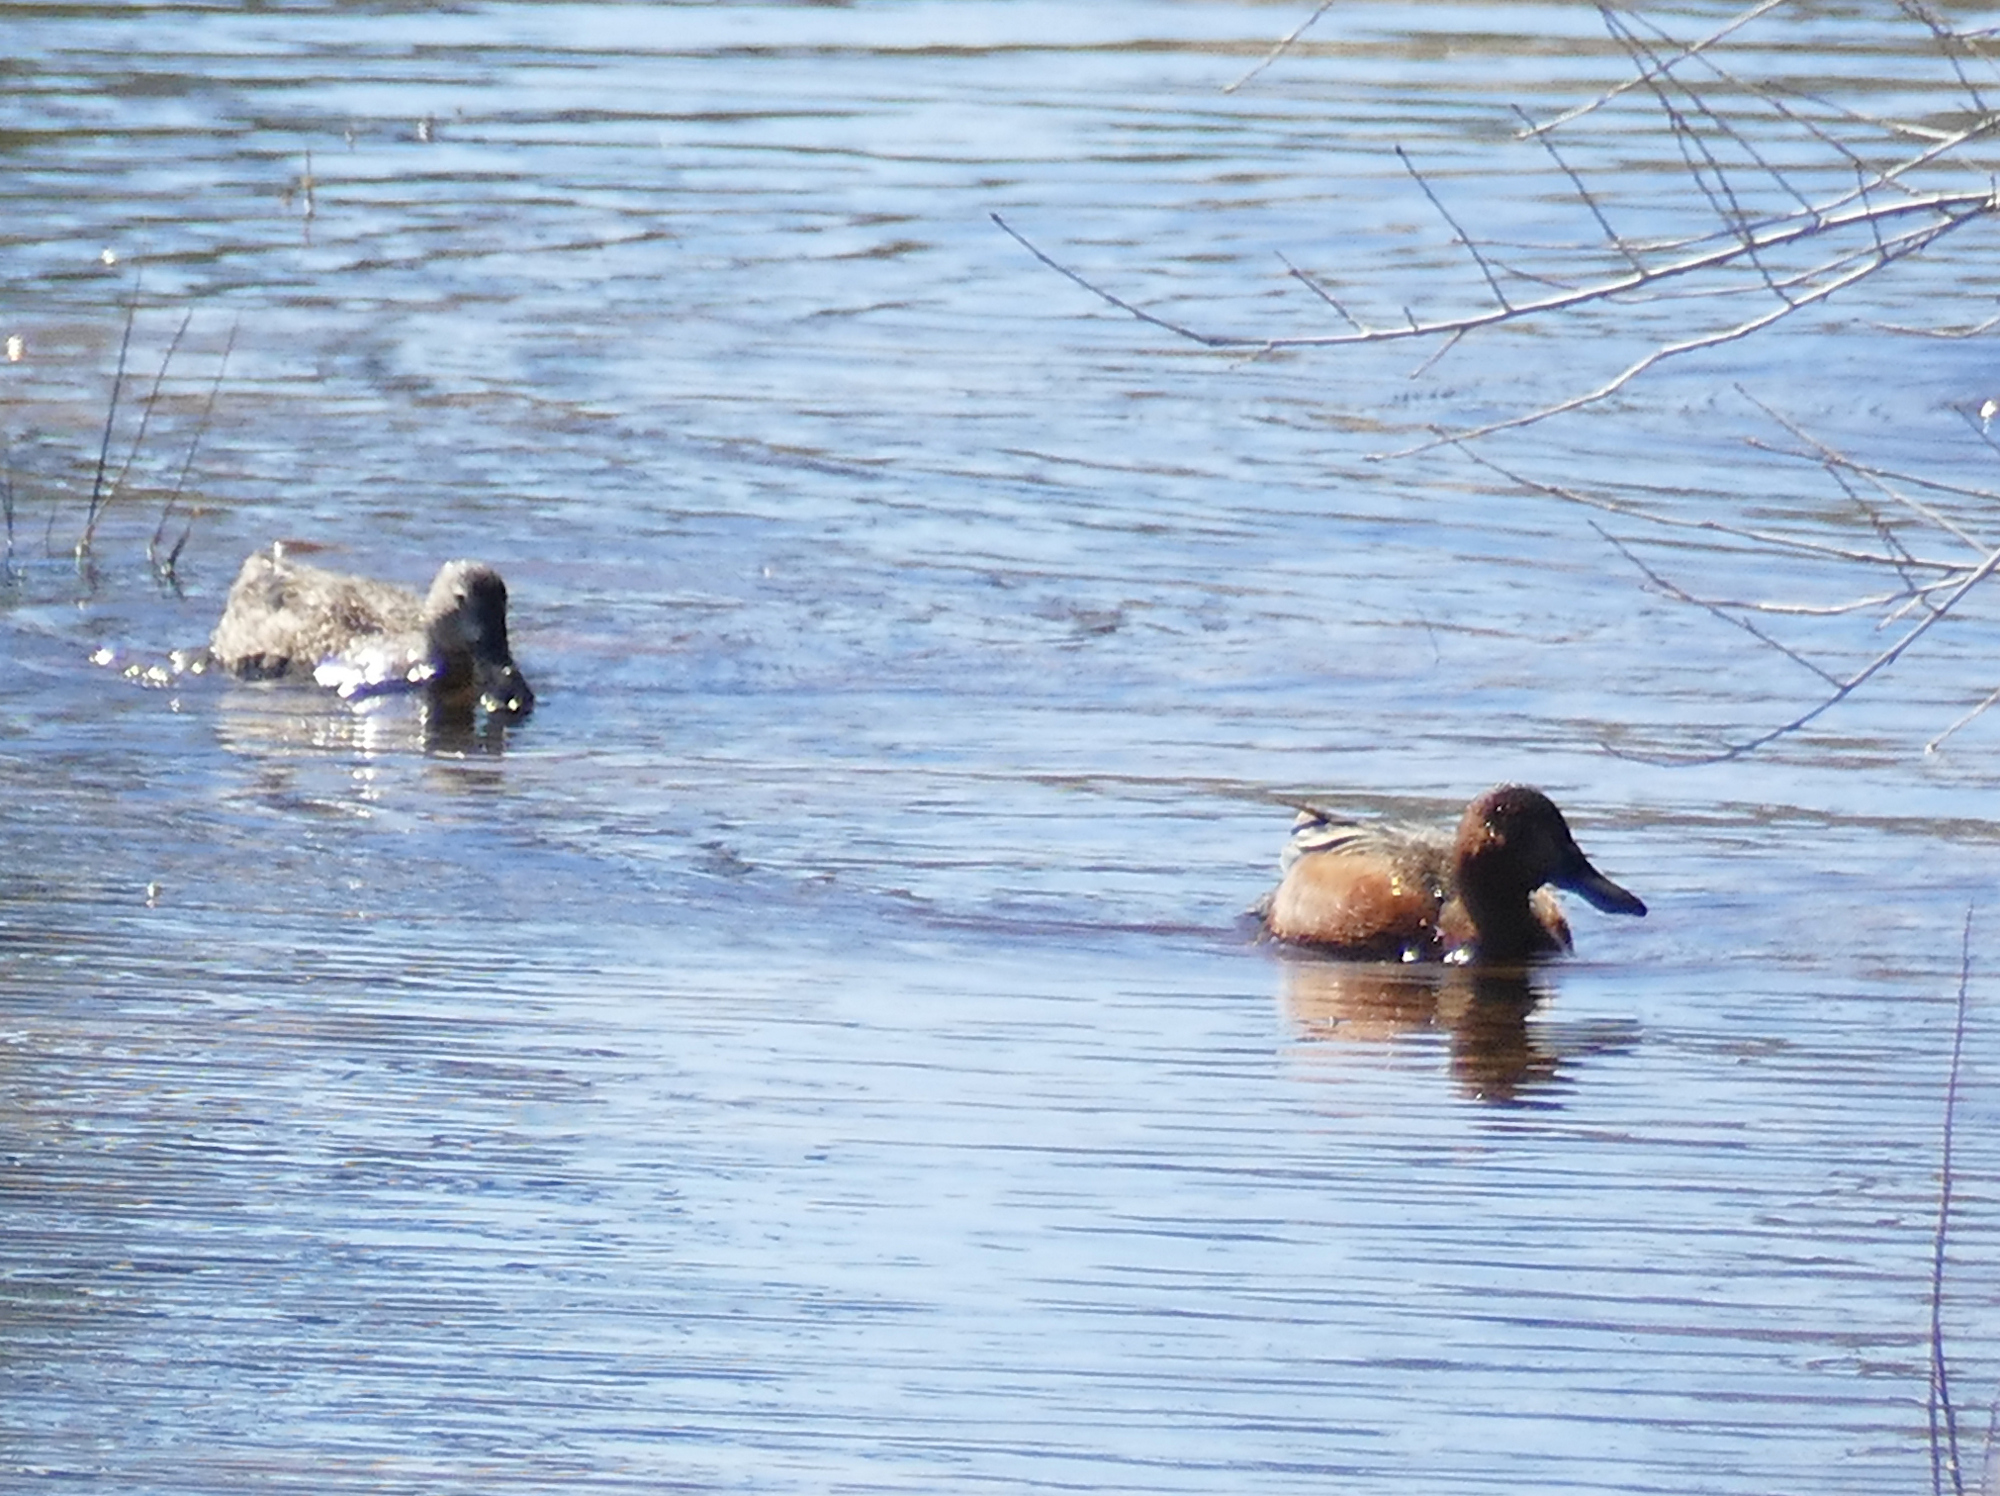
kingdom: Animalia
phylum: Chordata
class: Aves
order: Anseriformes
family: Anatidae
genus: Spatula
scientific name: Spatula cyanoptera
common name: Cinnamon teal
